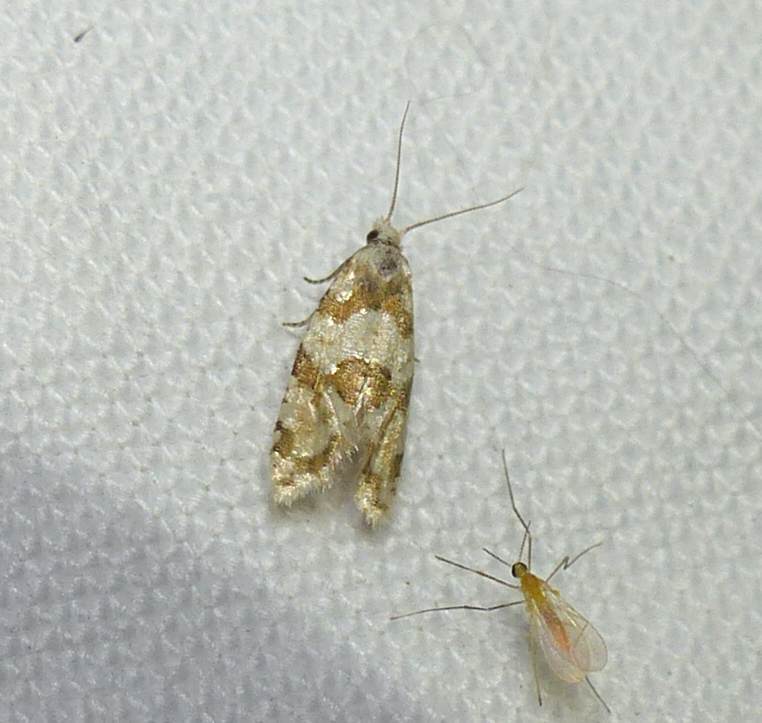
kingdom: Animalia
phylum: Arthropoda
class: Insecta
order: Lepidoptera
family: Tortricidae
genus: Aethes
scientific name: Aethes argentilimitana
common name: Silver-bordered aethes
